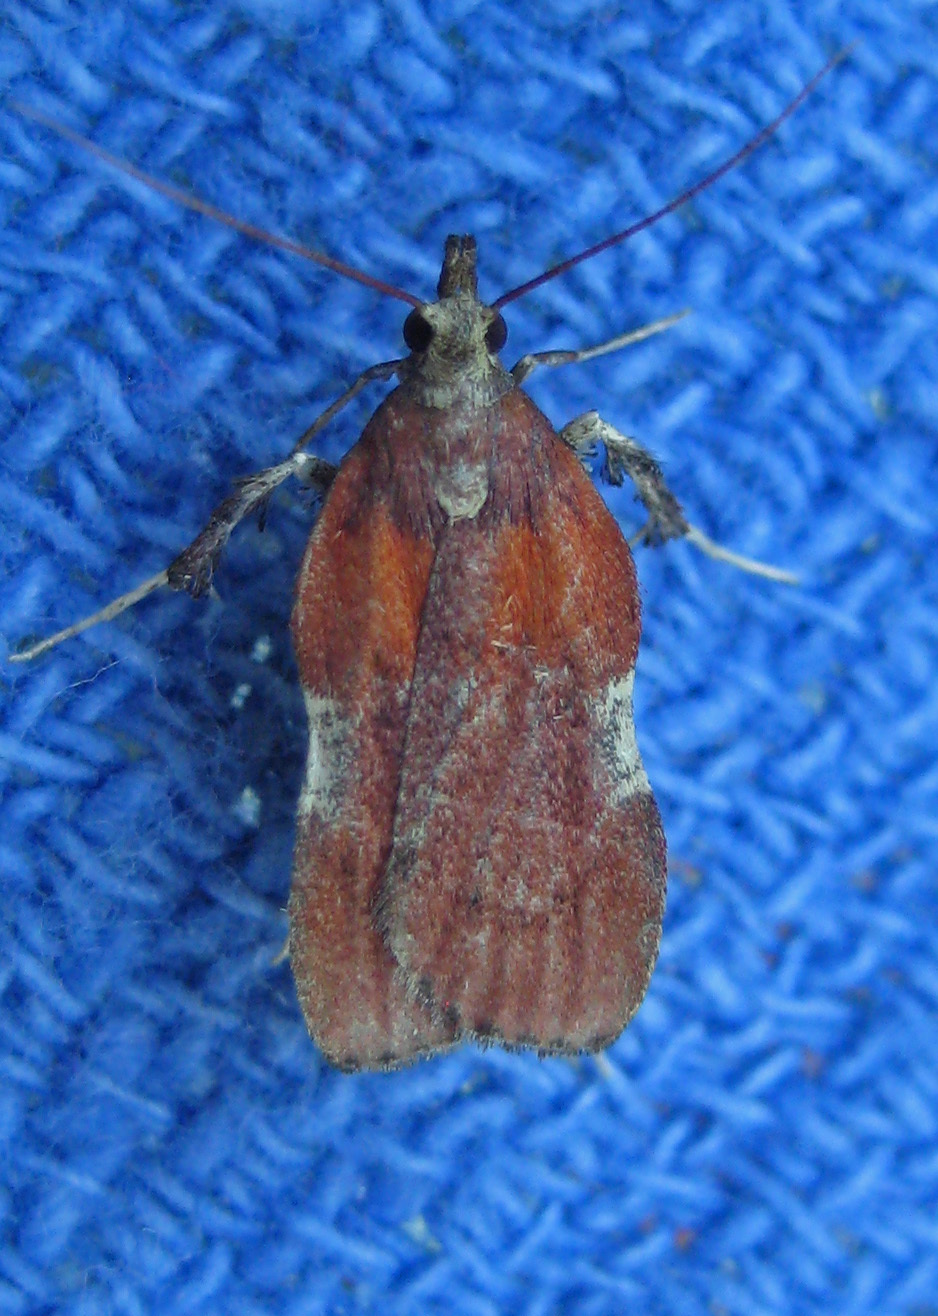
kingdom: Animalia
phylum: Arthropoda
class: Insecta
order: Lepidoptera
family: Pyralidae
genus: Galasa
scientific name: Galasa nigrinodis
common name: Boxwood leaftier moth
